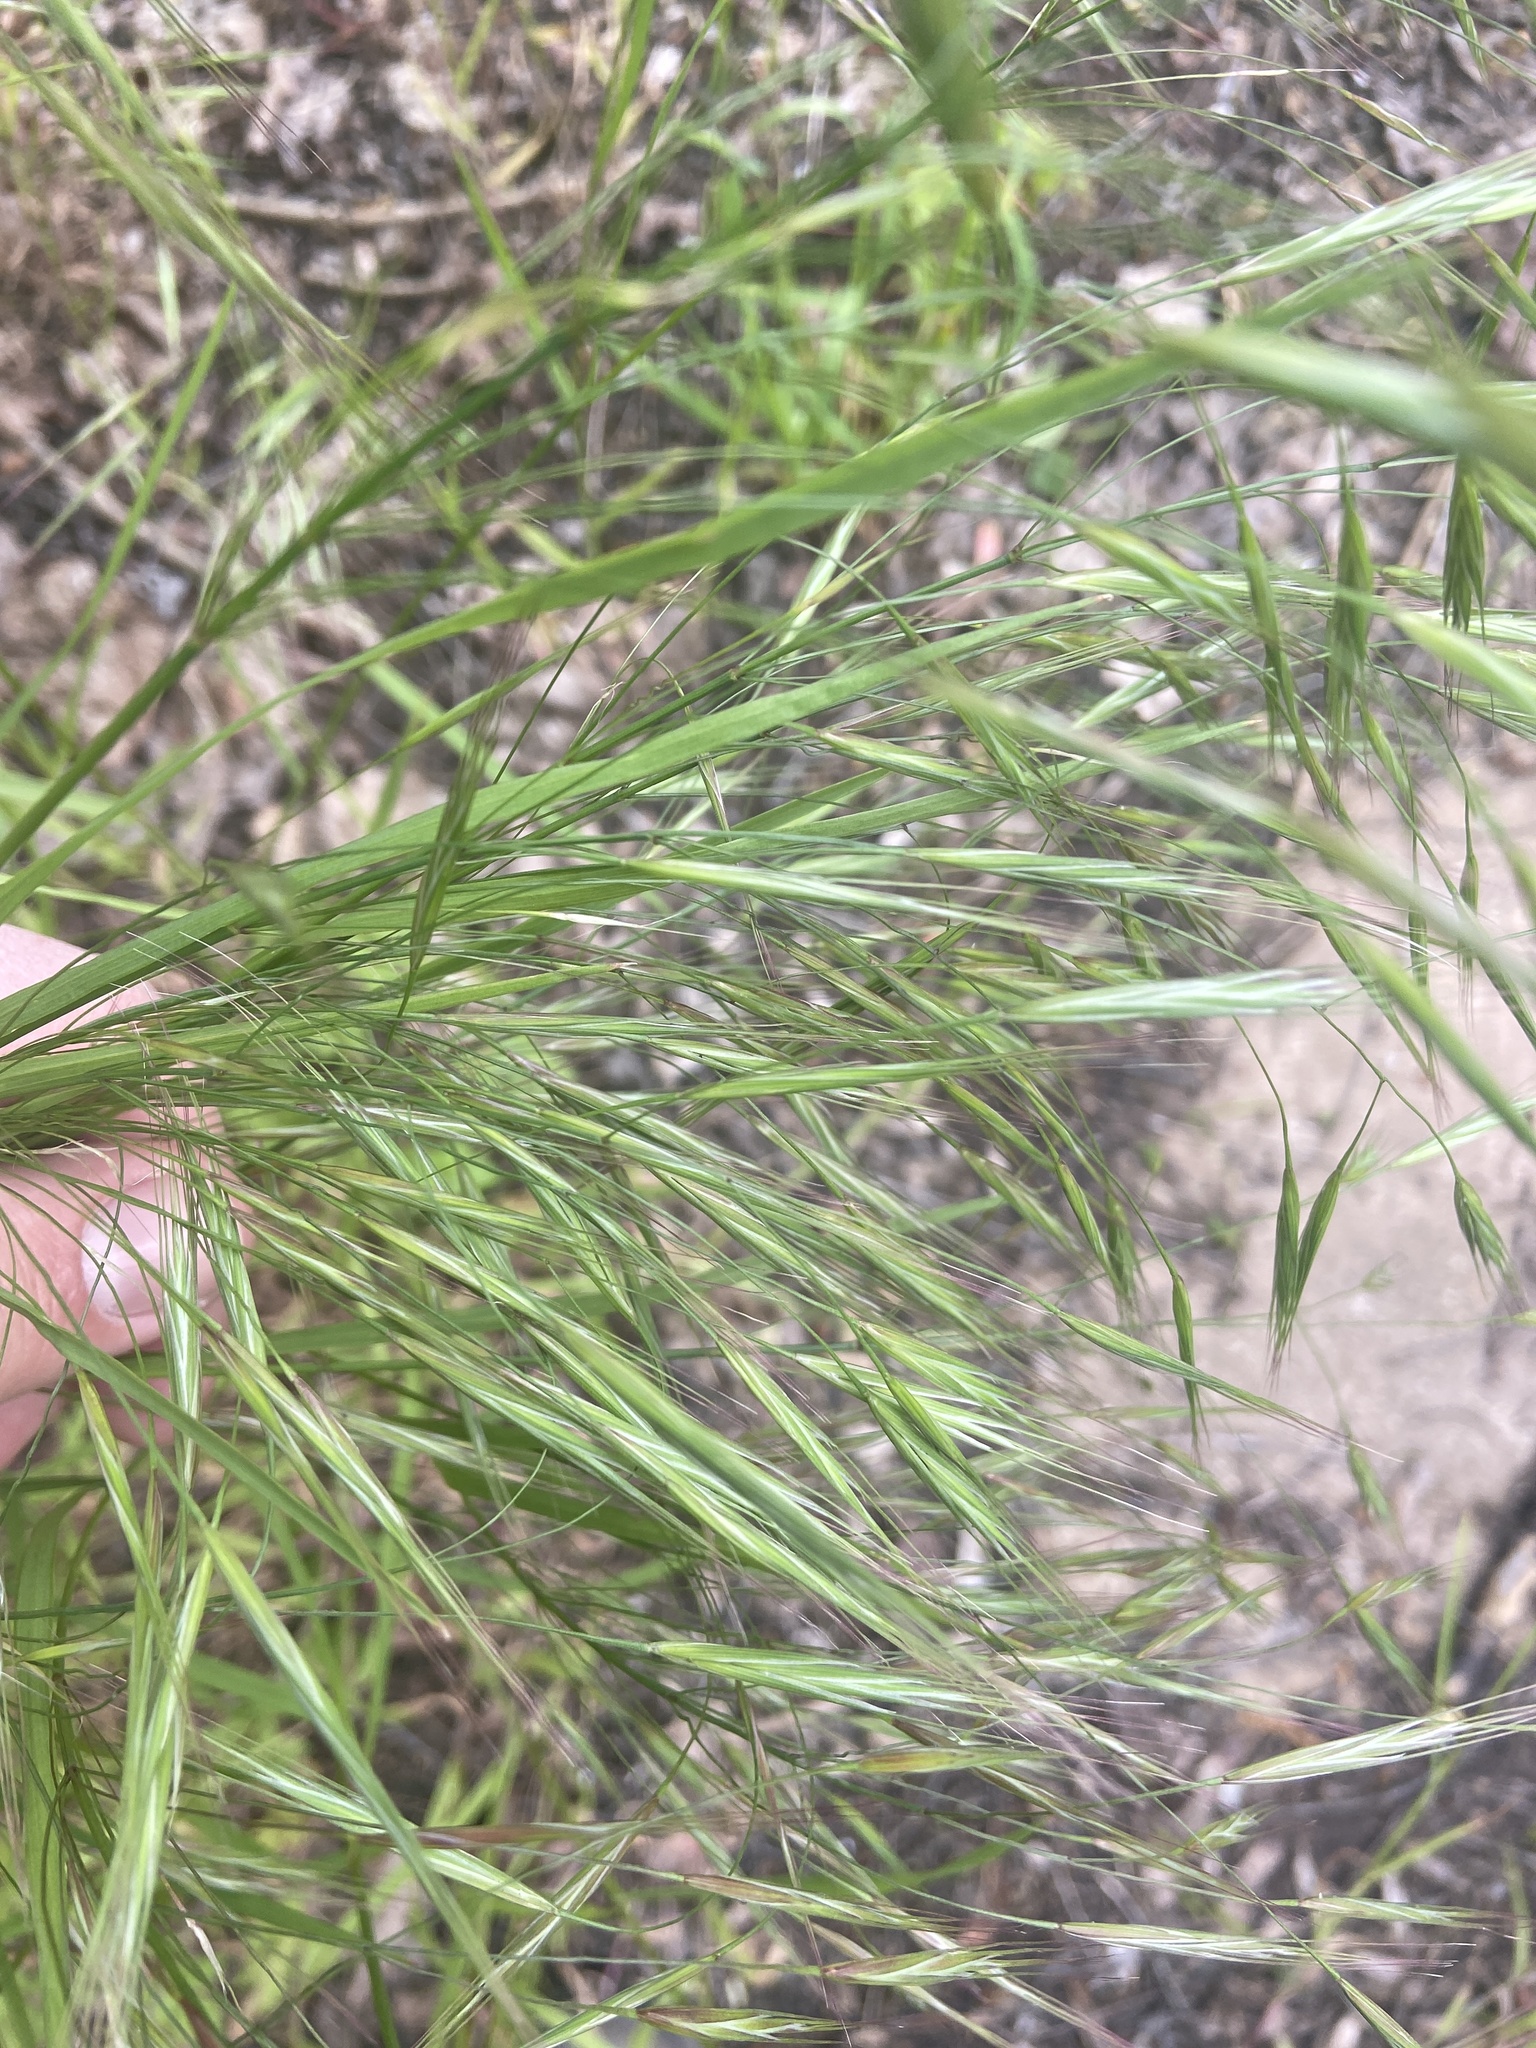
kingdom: Plantae
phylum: Tracheophyta
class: Liliopsida
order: Poales
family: Poaceae
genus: Bromus
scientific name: Bromus sterilis
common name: Poverty brome
